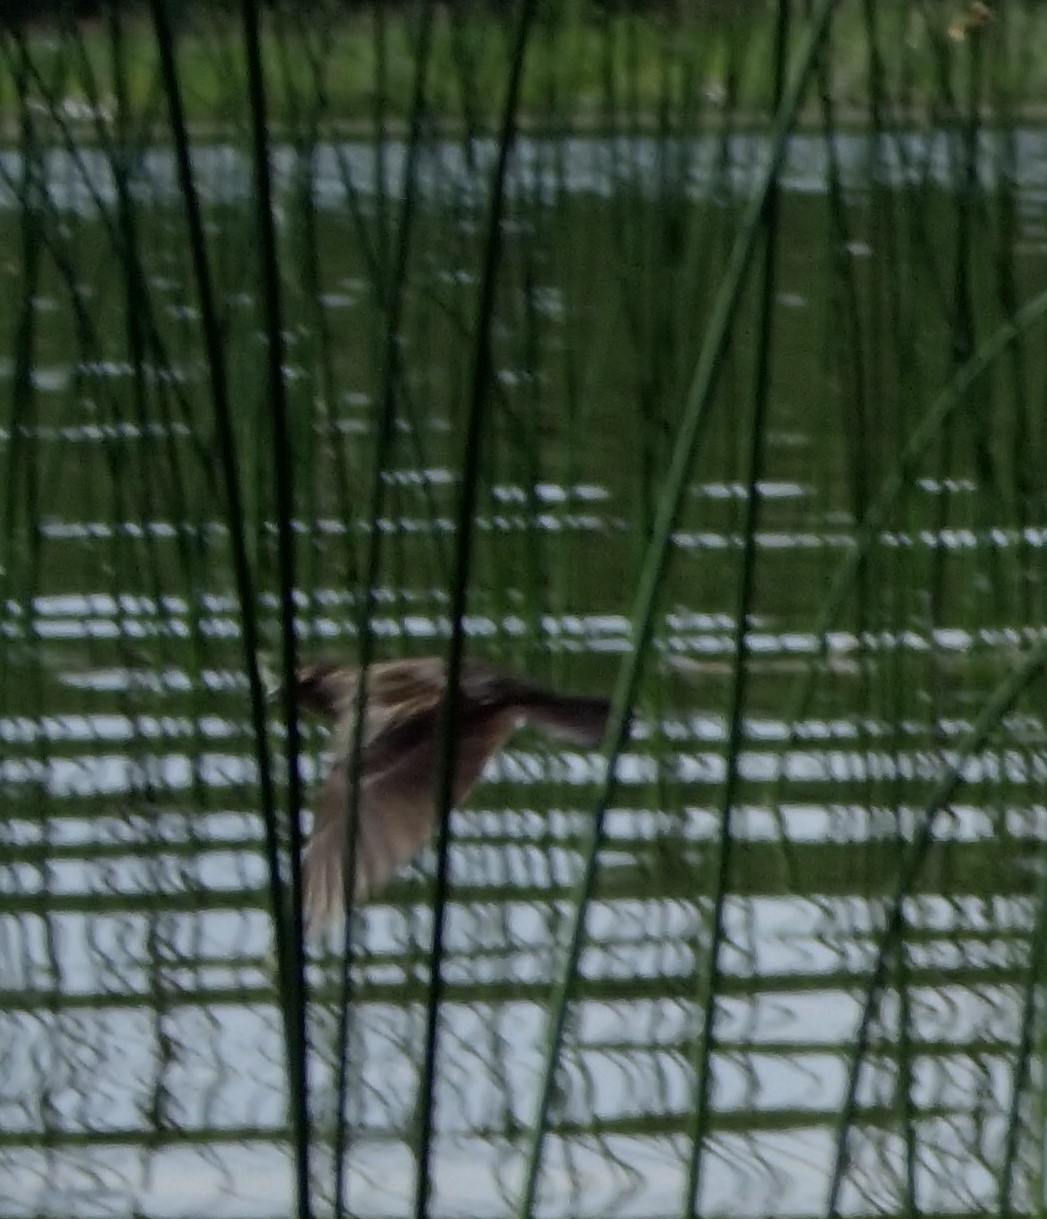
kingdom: Animalia
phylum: Chordata
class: Aves
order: Passeriformes
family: Icteridae
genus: Agelaius
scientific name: Agelaius phoeniceus
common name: Red-winged blackbird
